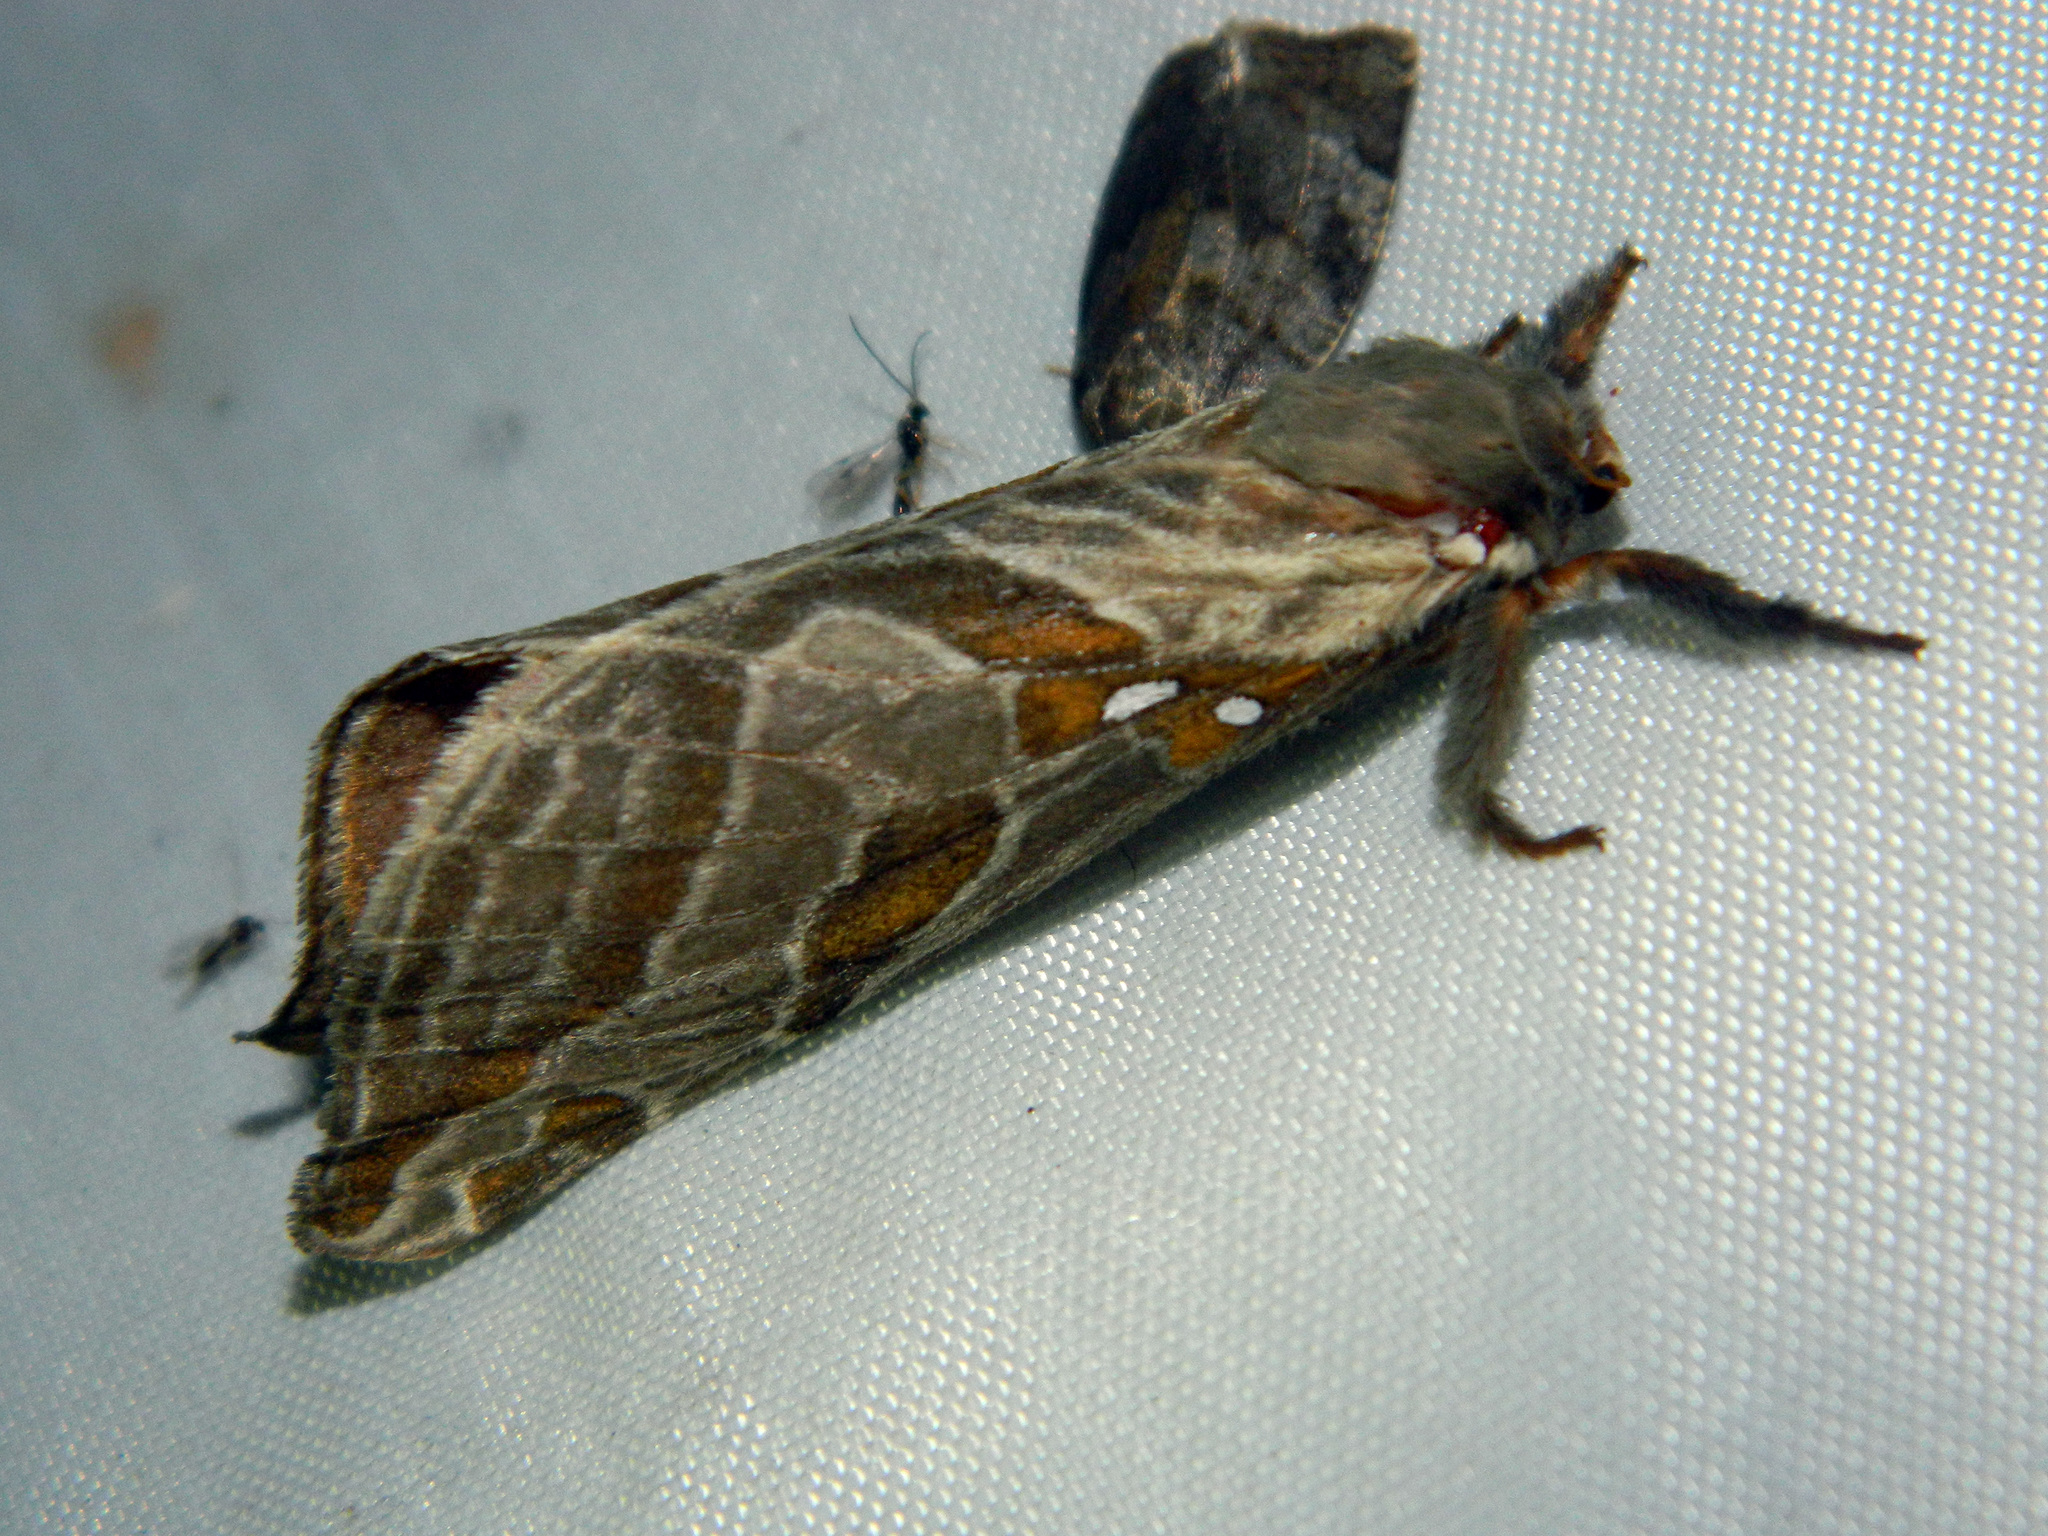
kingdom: Animalia
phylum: Arthropoda
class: Insecta
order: Lepidoptera
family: Hepialidae
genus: Sthenopis
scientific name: Sthenopis argenteomaculatus
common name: Silver-spotted ghost moth
